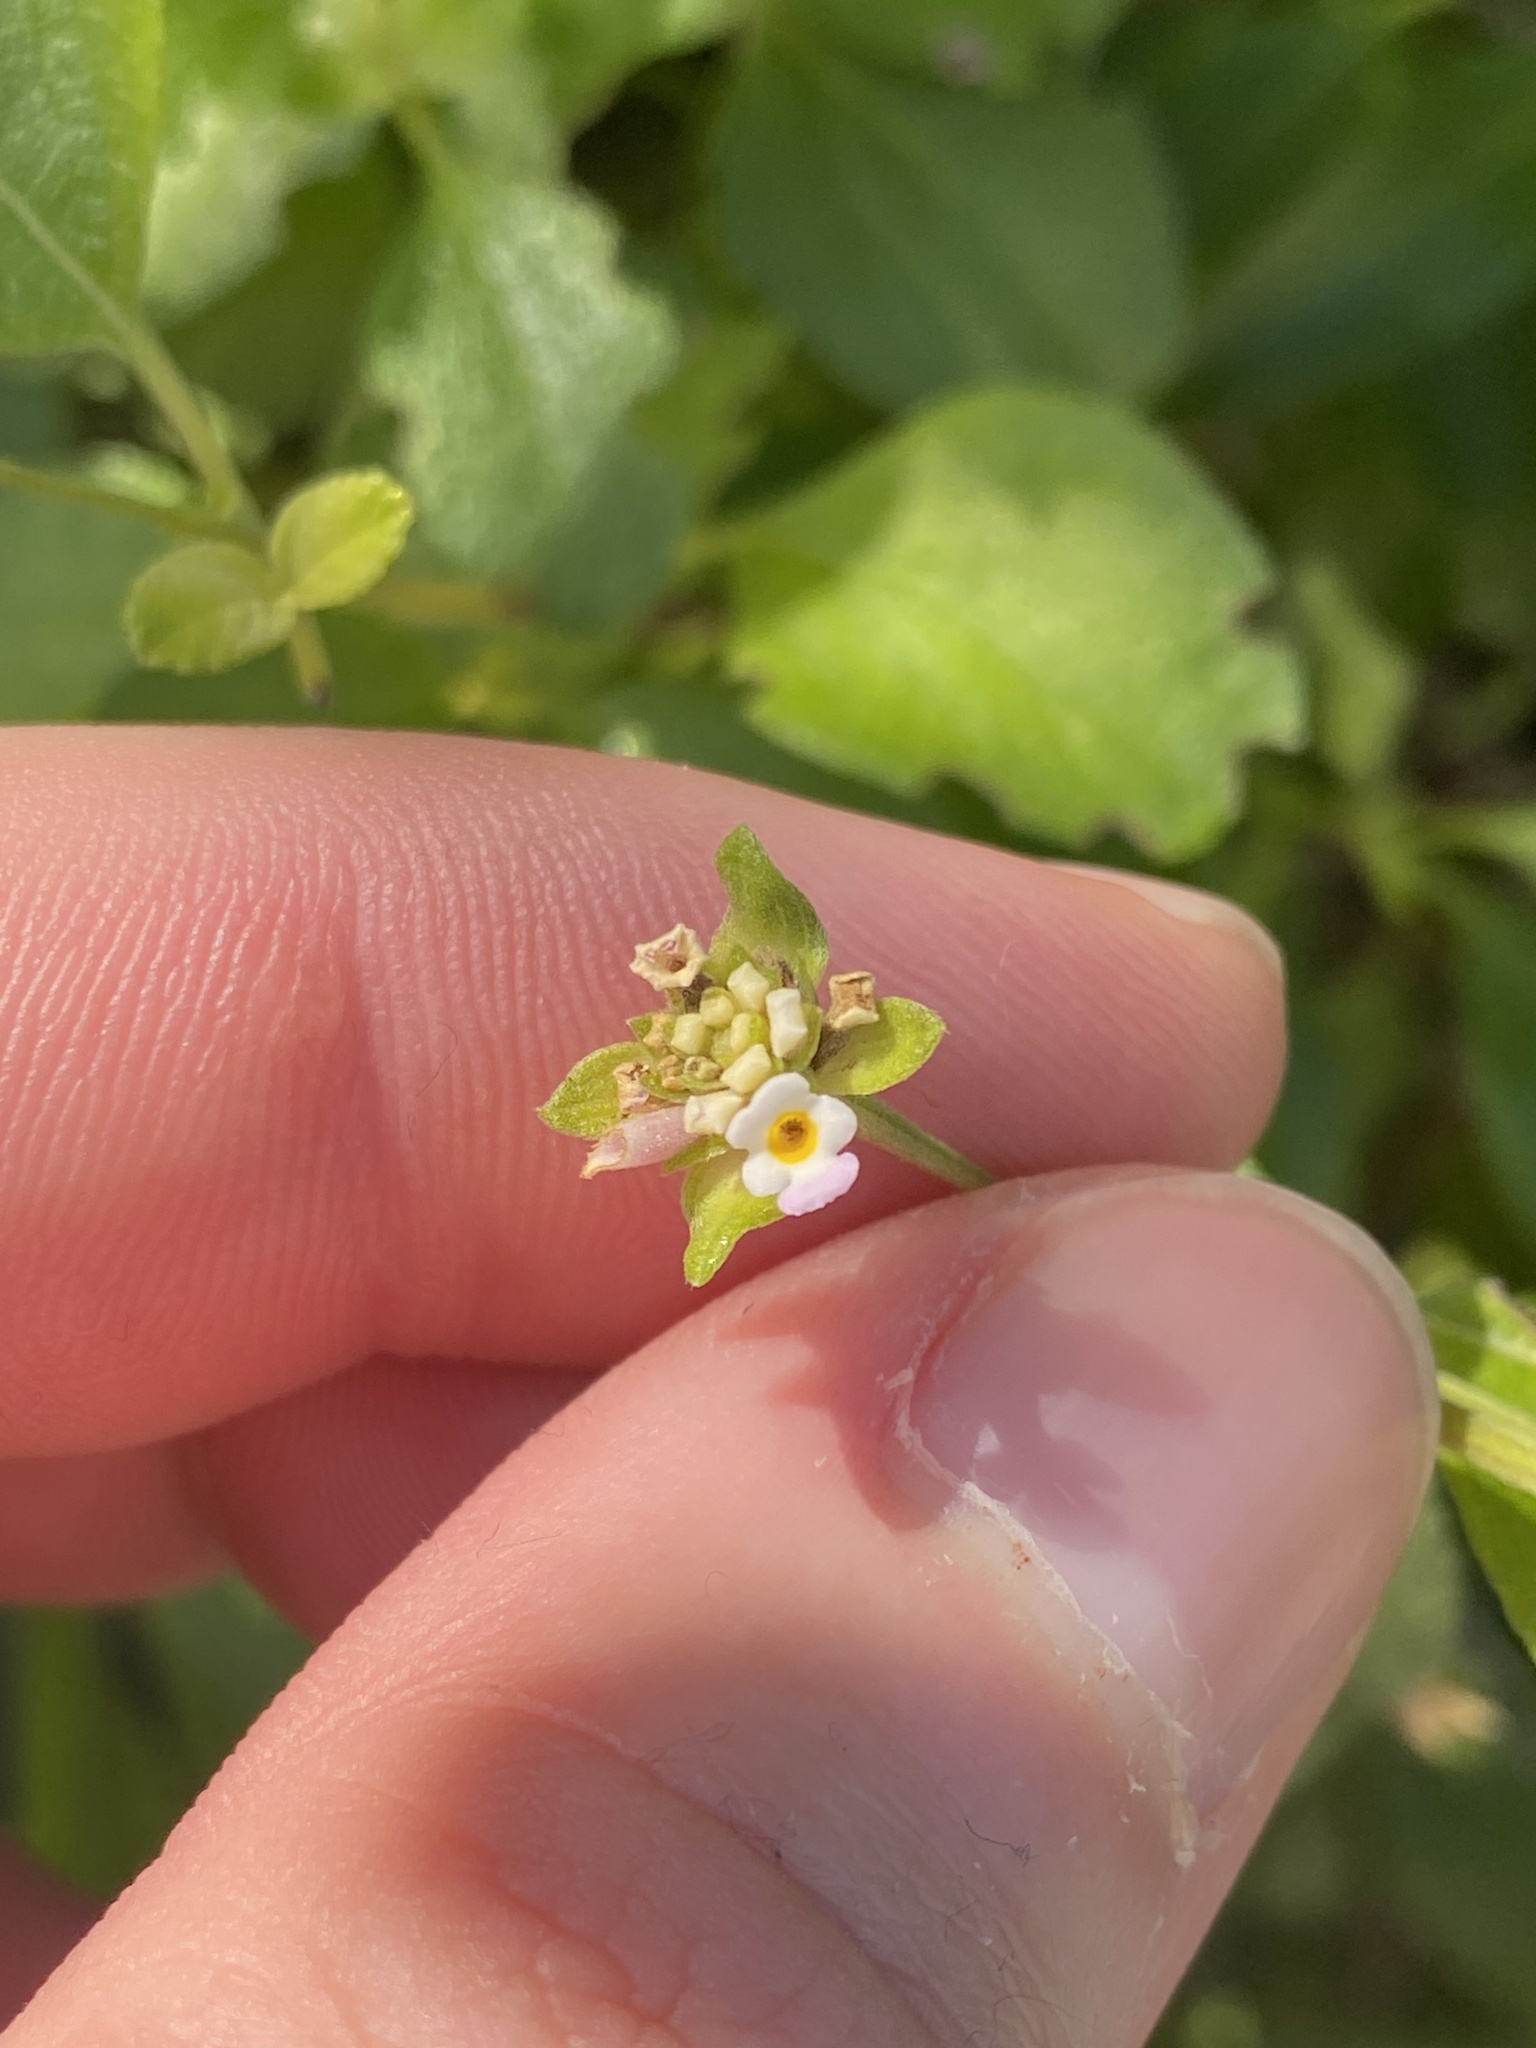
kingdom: Plantae
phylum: Tracheophyta
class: Magnoliopsida
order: Lamiales
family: Verbenaceae
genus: Lantana
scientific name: Lantana involucrata
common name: Black sage
